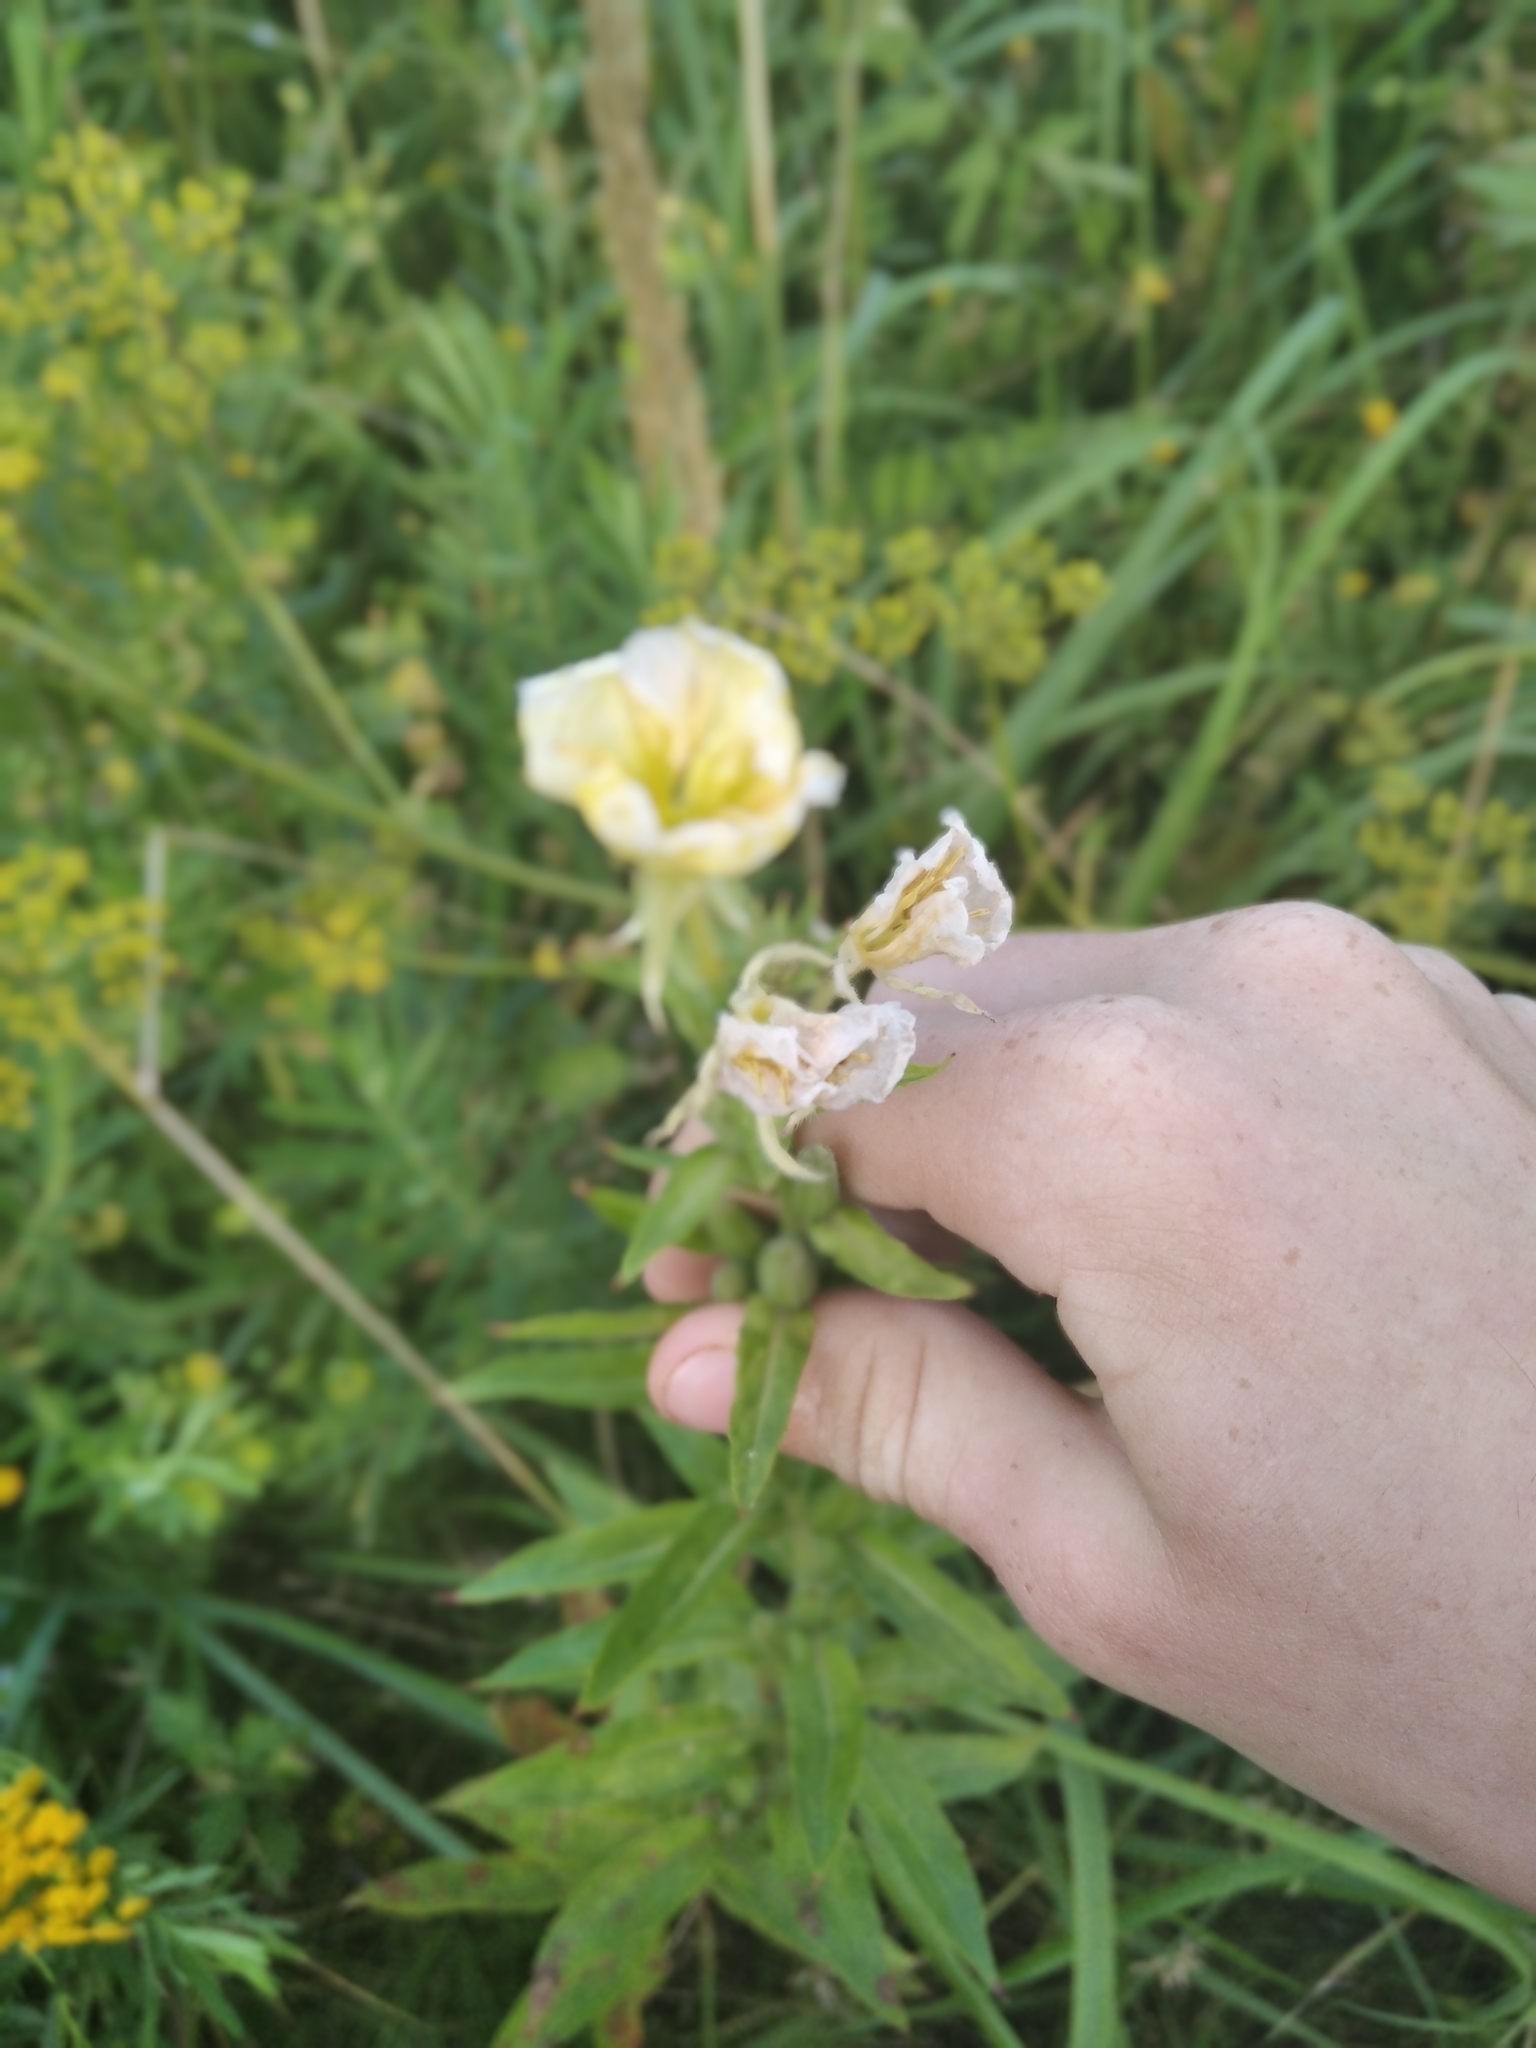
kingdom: Plantae
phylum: Tracheophyta
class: Magnoliopsida
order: Myrtales
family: Onagraceae
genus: Oenothera
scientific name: Oenothera biennis
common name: Common evening-primrose
